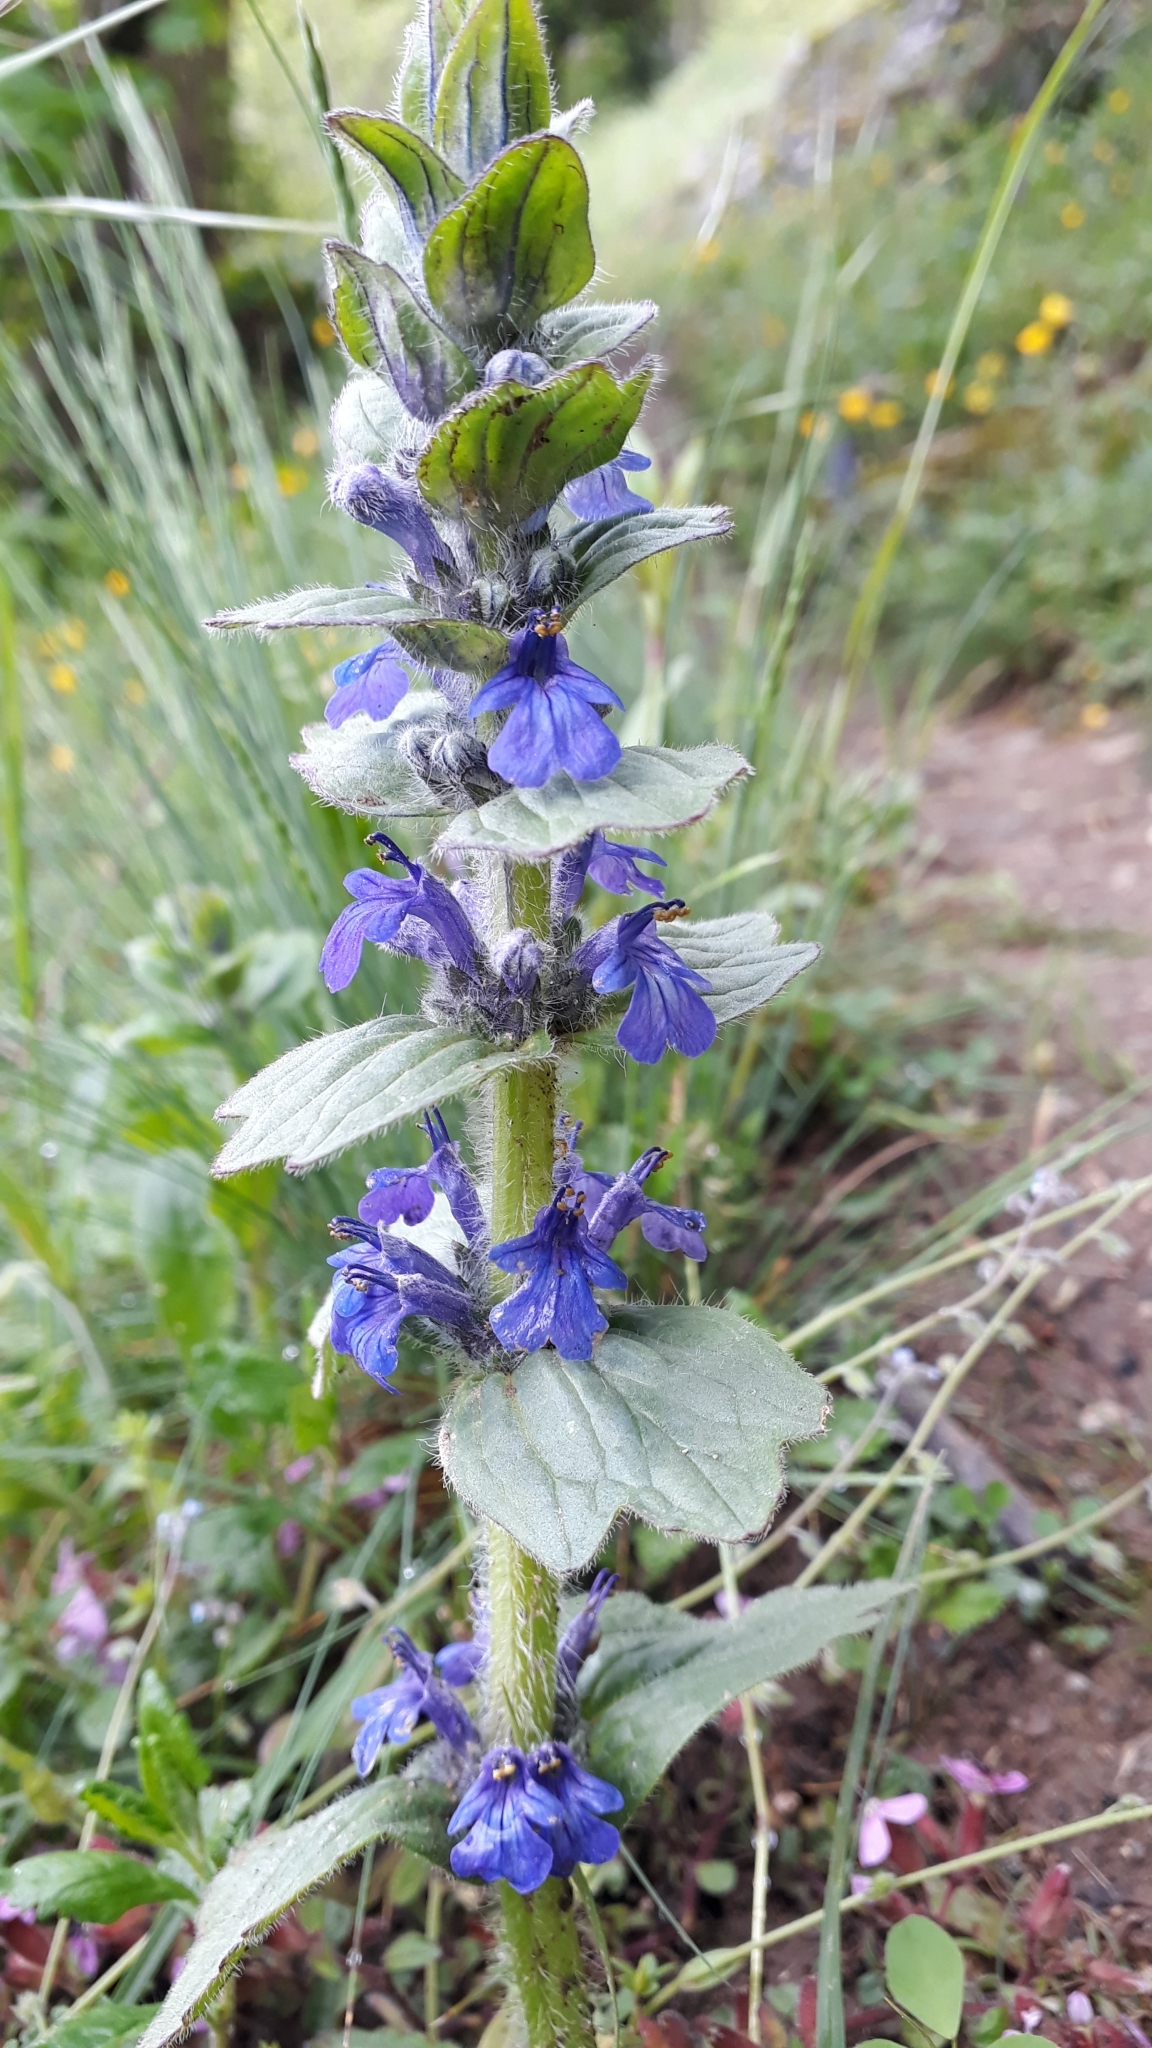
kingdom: Plantae
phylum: Tracheophyta
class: Magnoliopsida
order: Lamiales
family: Lamiaceae
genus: Ajuga
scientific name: Ajuga genevensis
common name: Blue bugle
